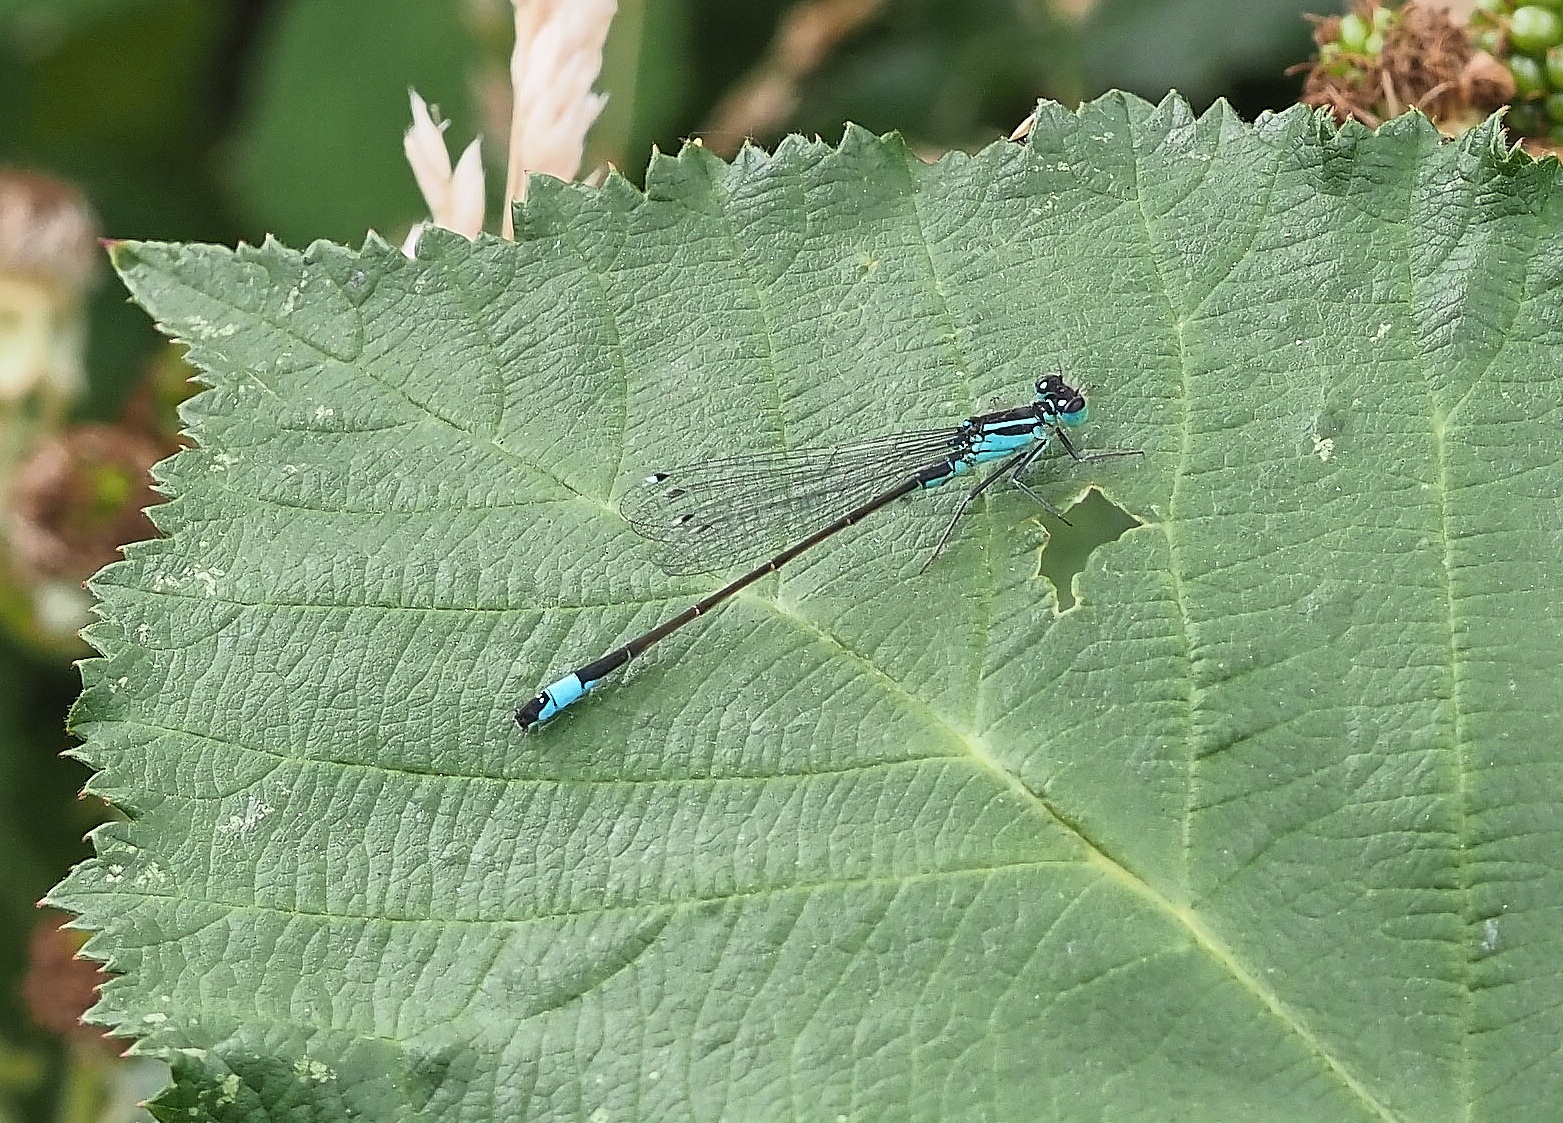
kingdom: Animalia
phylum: Arthropoda
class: Insecta
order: Odonata
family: Coenagrionidae
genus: Ischnura
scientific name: Ischnura elegans
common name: Blue-tailed damselfly
